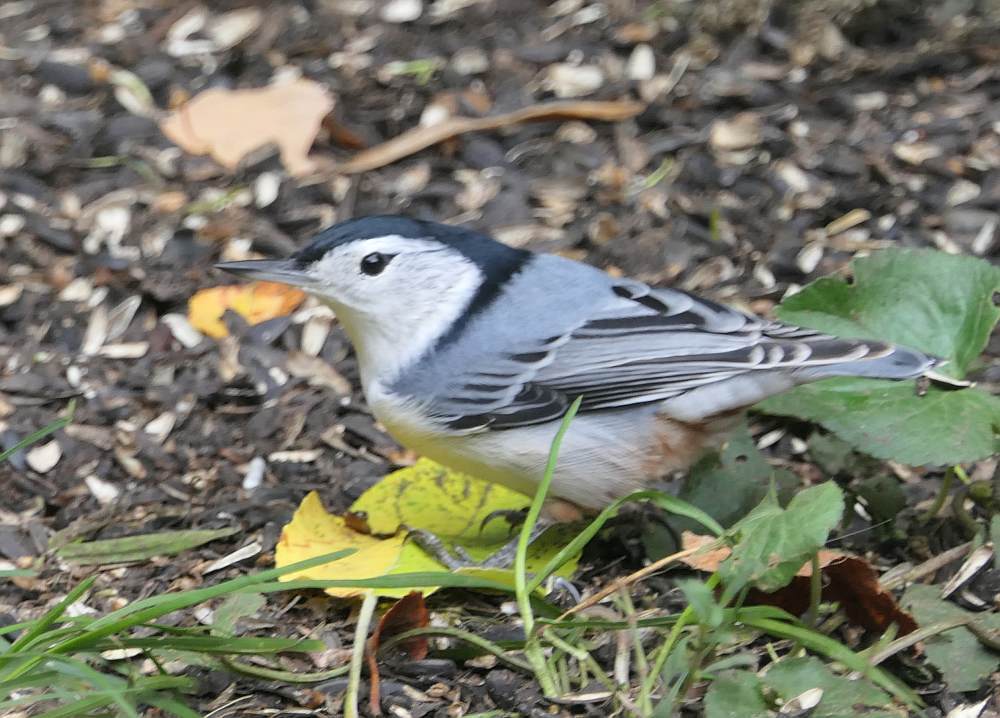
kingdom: Animalia
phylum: Chordata
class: Aves
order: Passeriformes
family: Sittidae
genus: Sitta
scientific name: Sitta carolinensis
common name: White-breasted nuthatch
